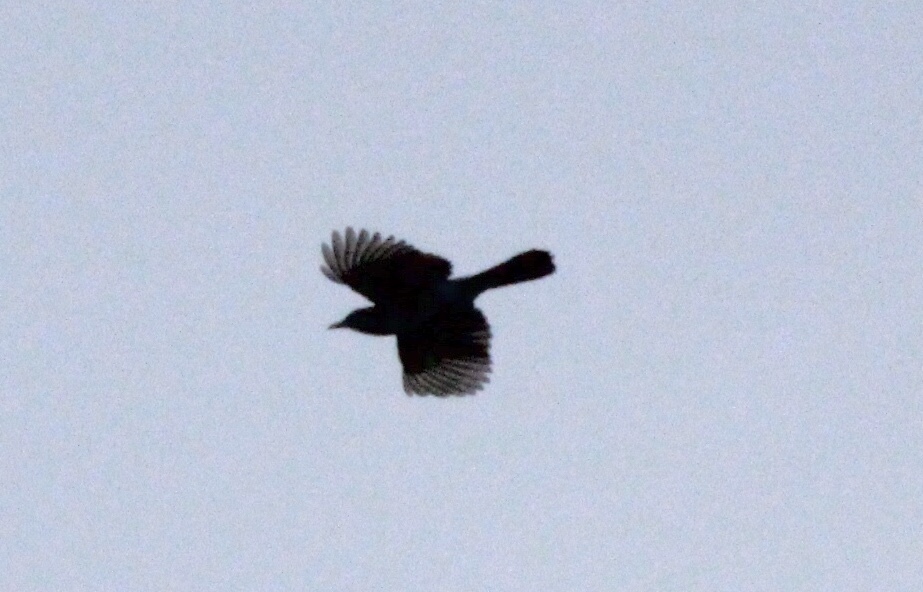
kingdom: Animalia
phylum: Chordata
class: Aves
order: Passeriformes
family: Corvidae
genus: Cyanocitta
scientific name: Cyanocitta stelleri
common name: Steller's jay
